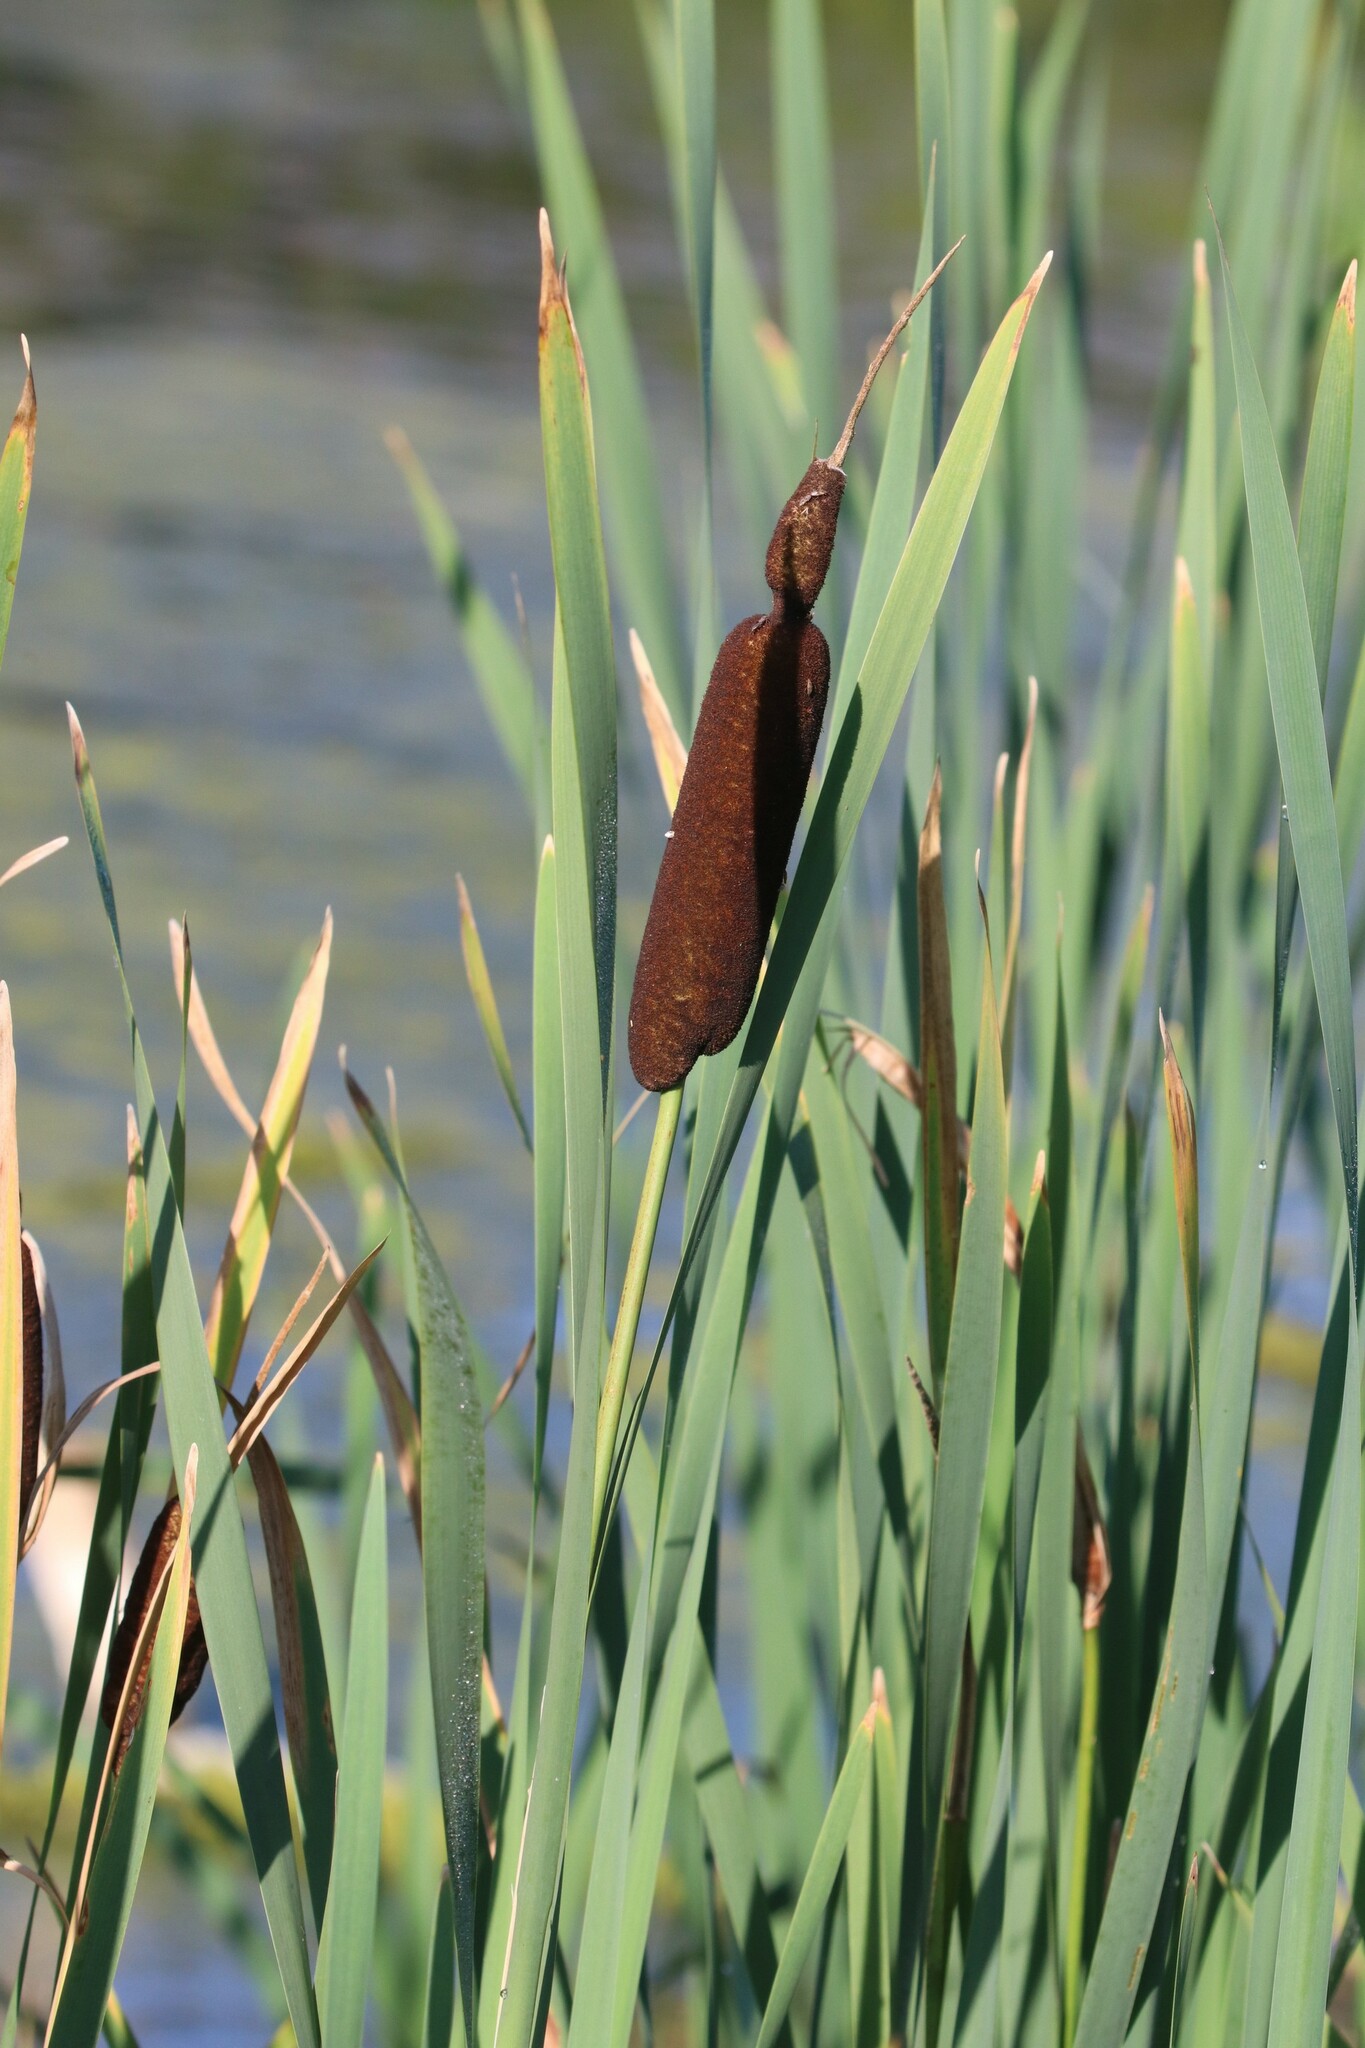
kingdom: Plantae
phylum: Tracheophyta
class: Liliopsida
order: Poales
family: Typhaceae
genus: Typha
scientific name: Typha latifolia
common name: Broadleaf cattail
